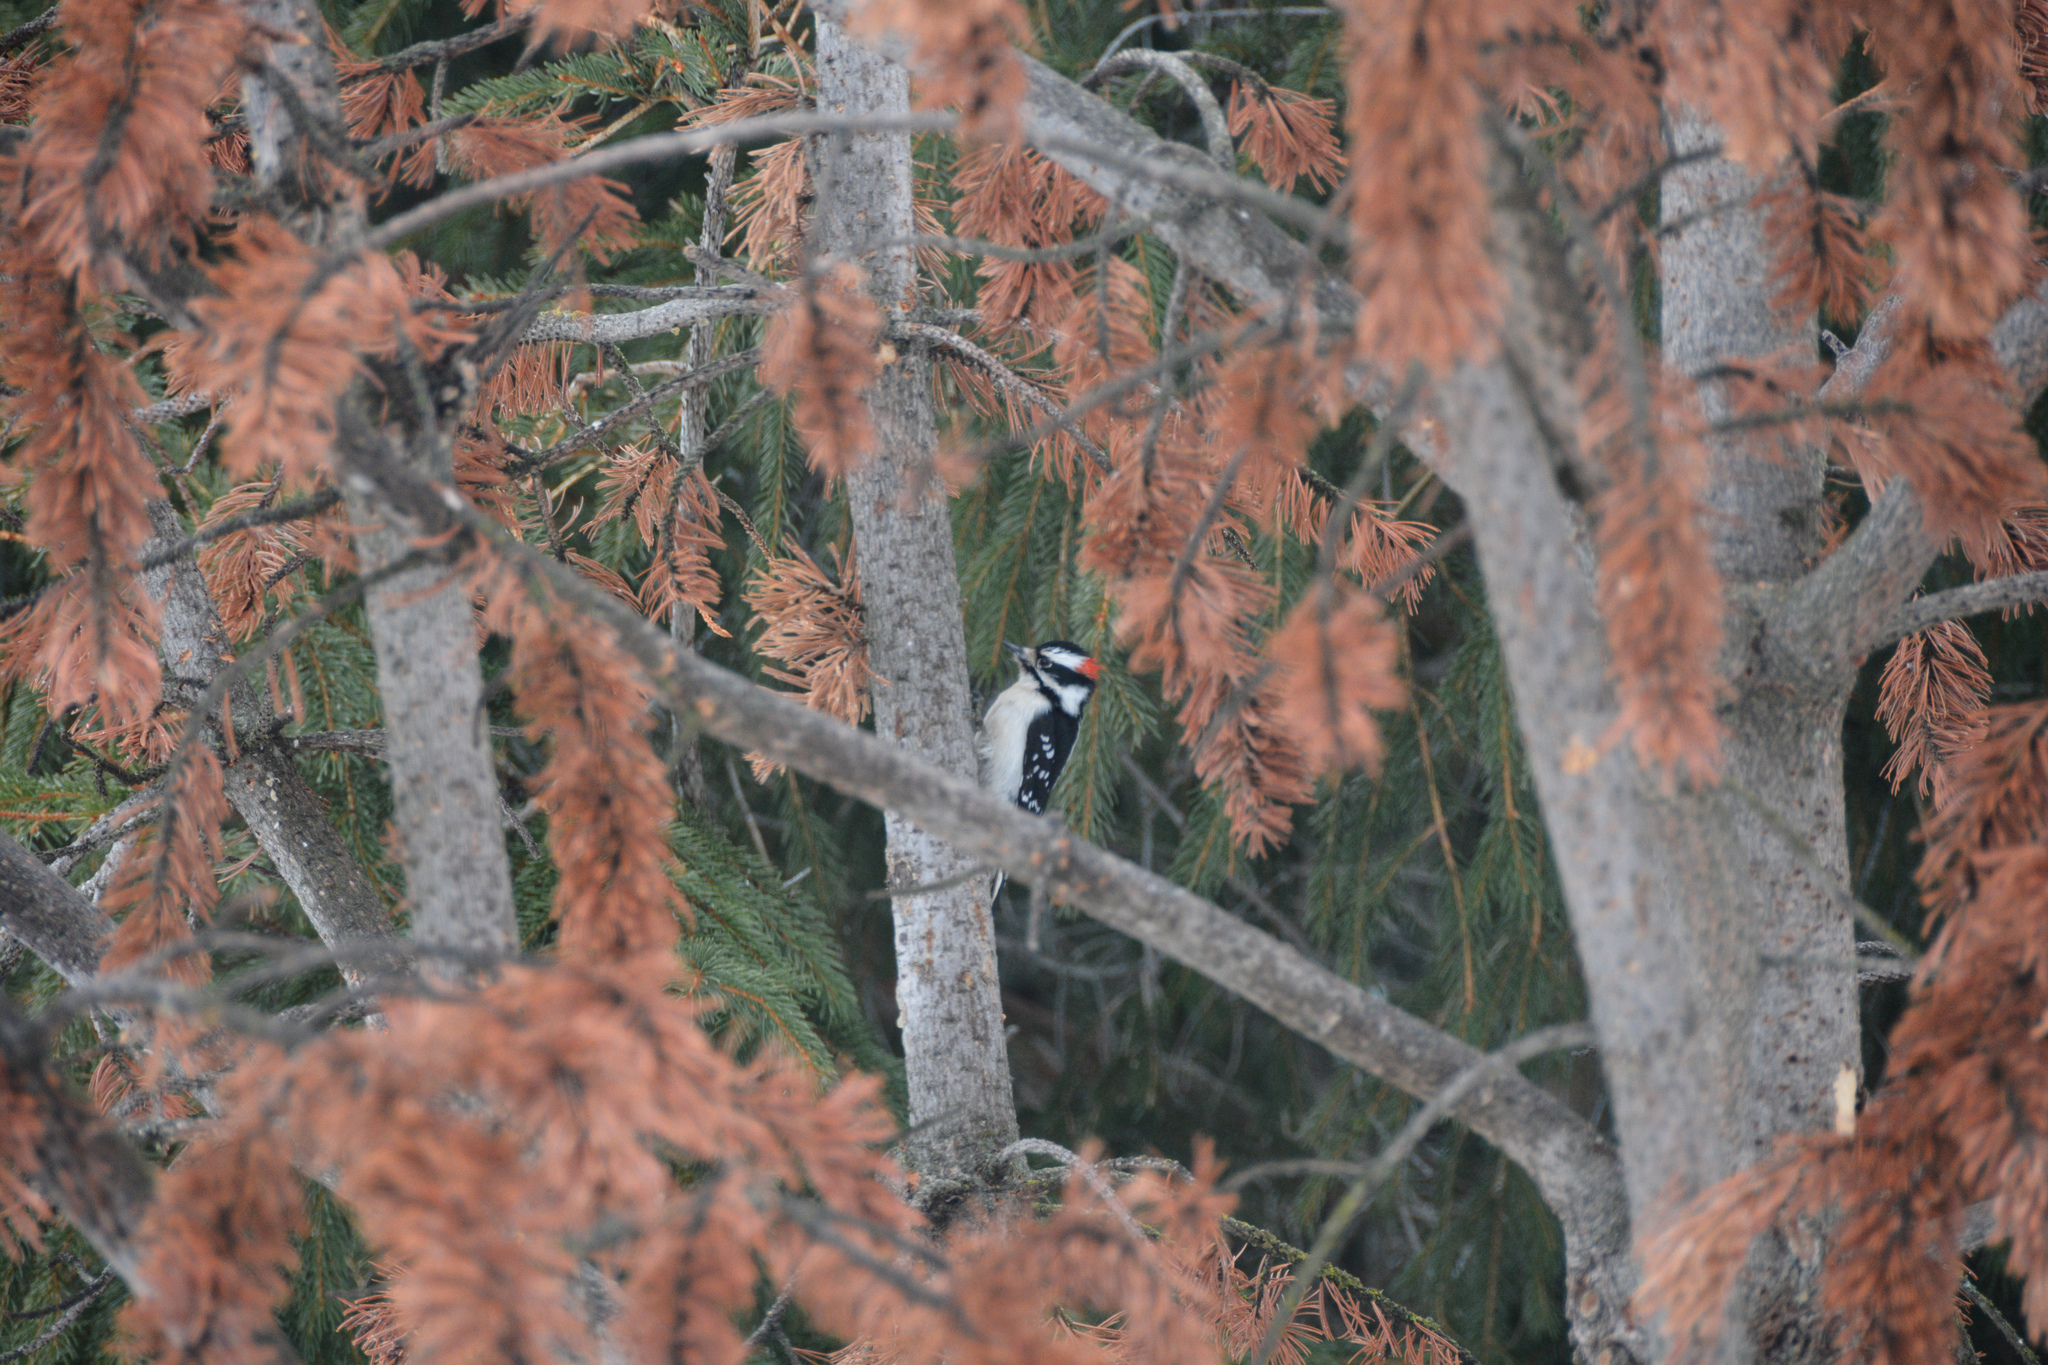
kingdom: Animalia
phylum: Chordata
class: Aves
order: Piciformes
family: Picidae
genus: Dryobates
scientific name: Dryobates pubescens
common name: Downy woodpecker
